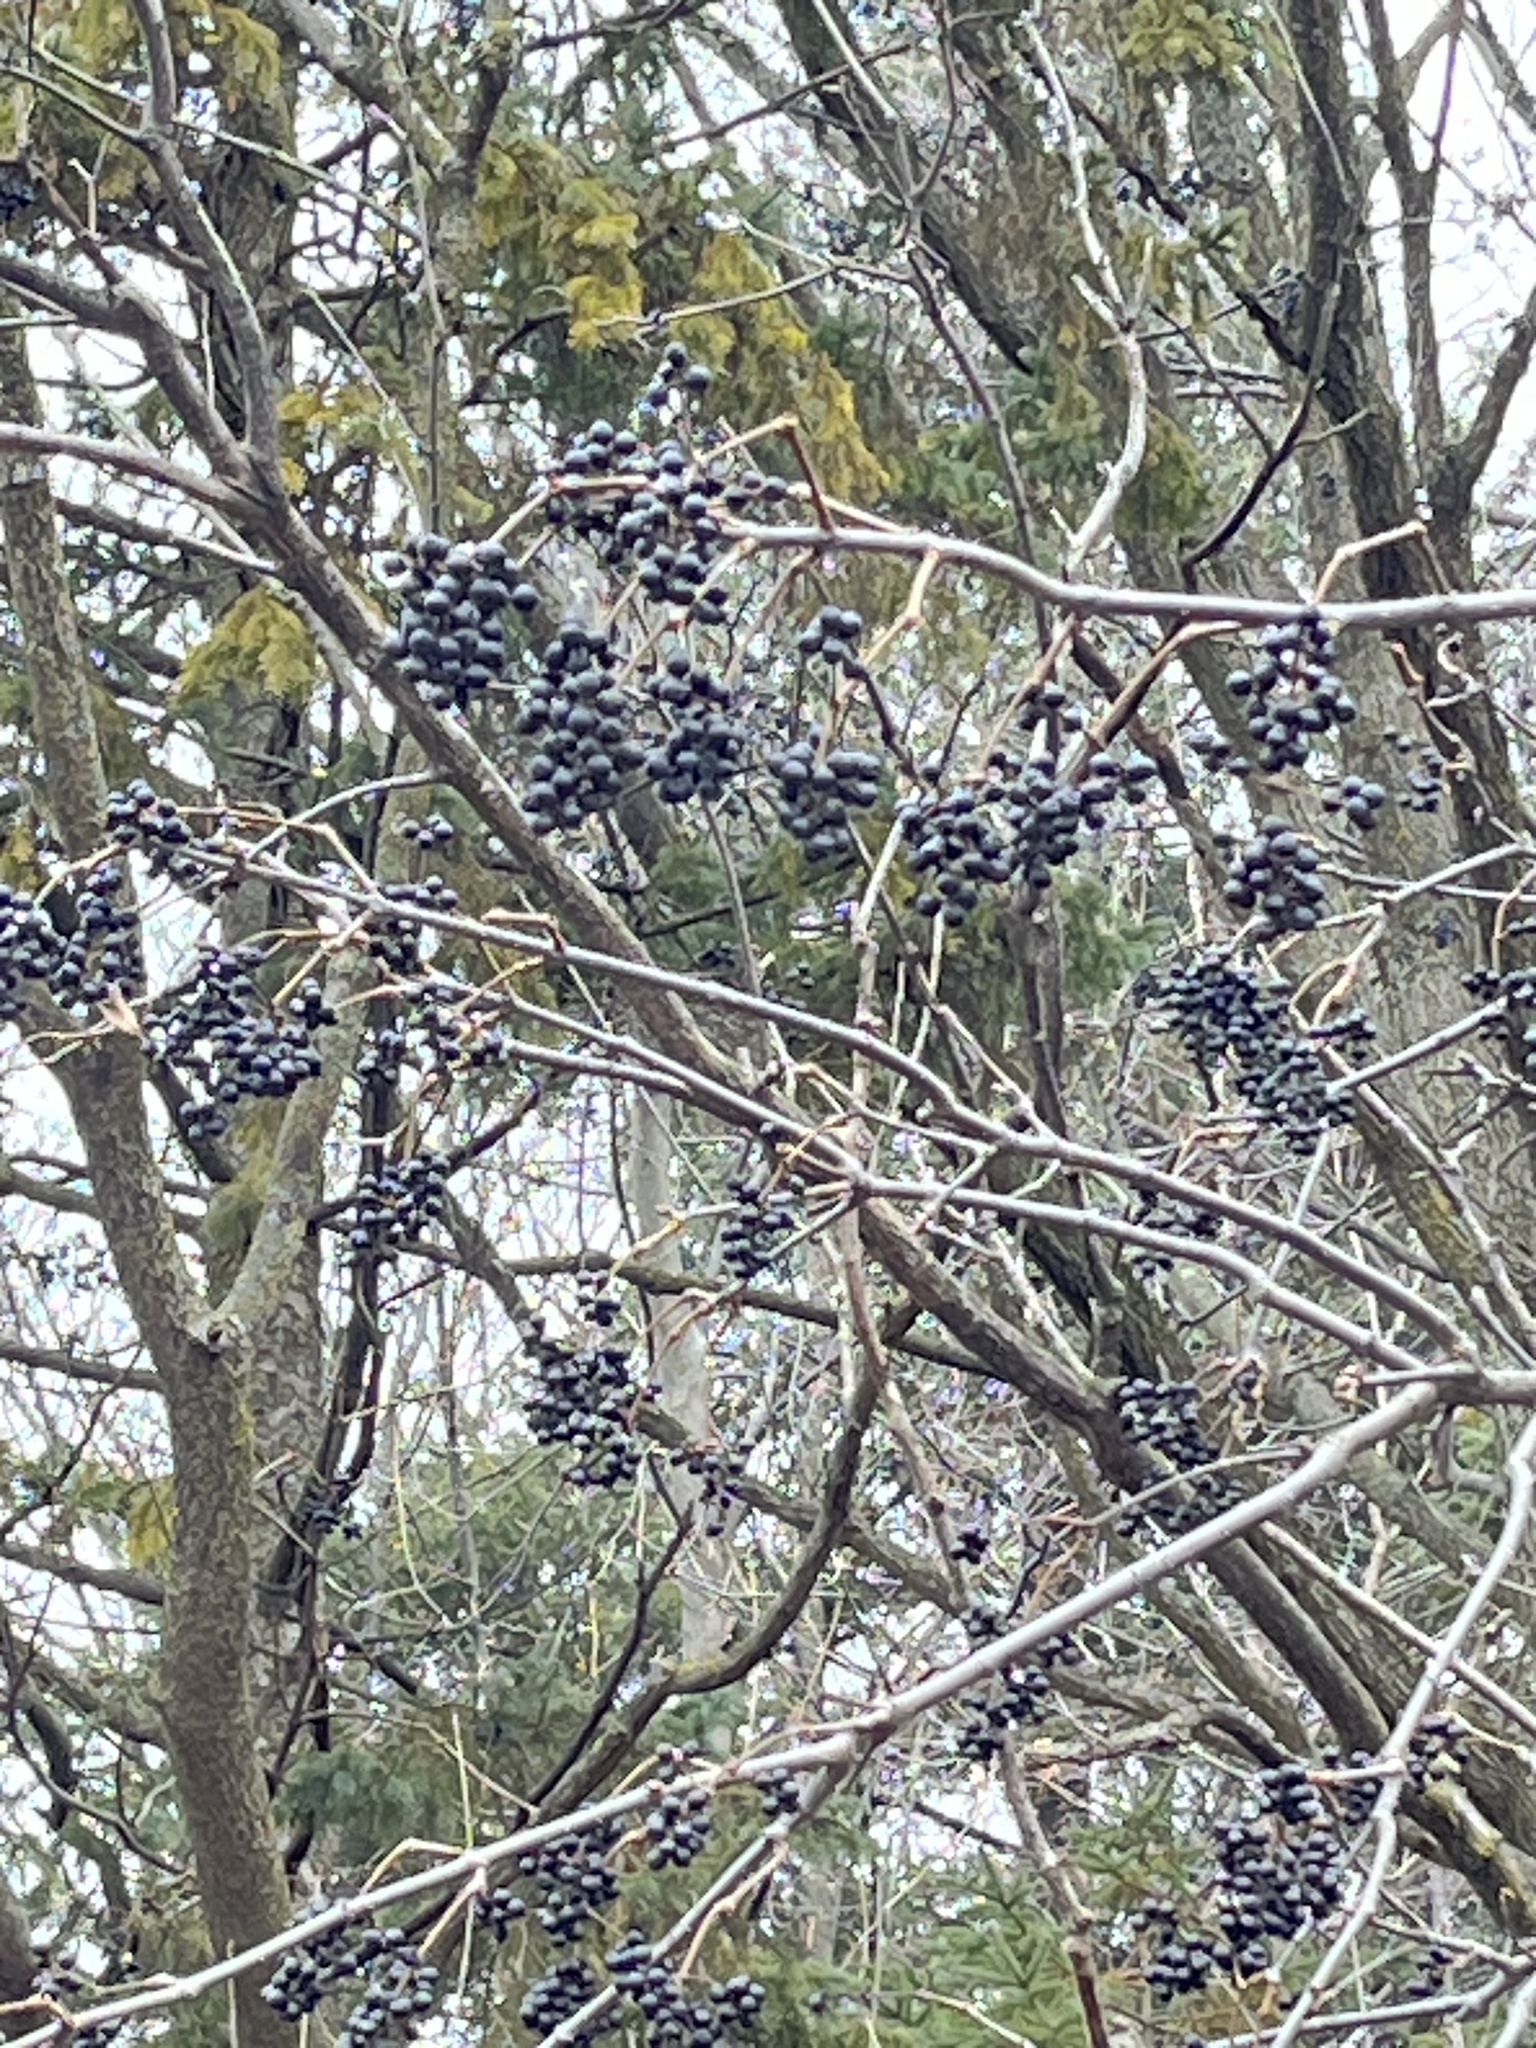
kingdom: Plantae
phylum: Tracheophyta
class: Magnoliopsida
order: Sapindales
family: Rutaceae
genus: Phellodendron
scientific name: Phellodendron amurense
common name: Amur corktree
